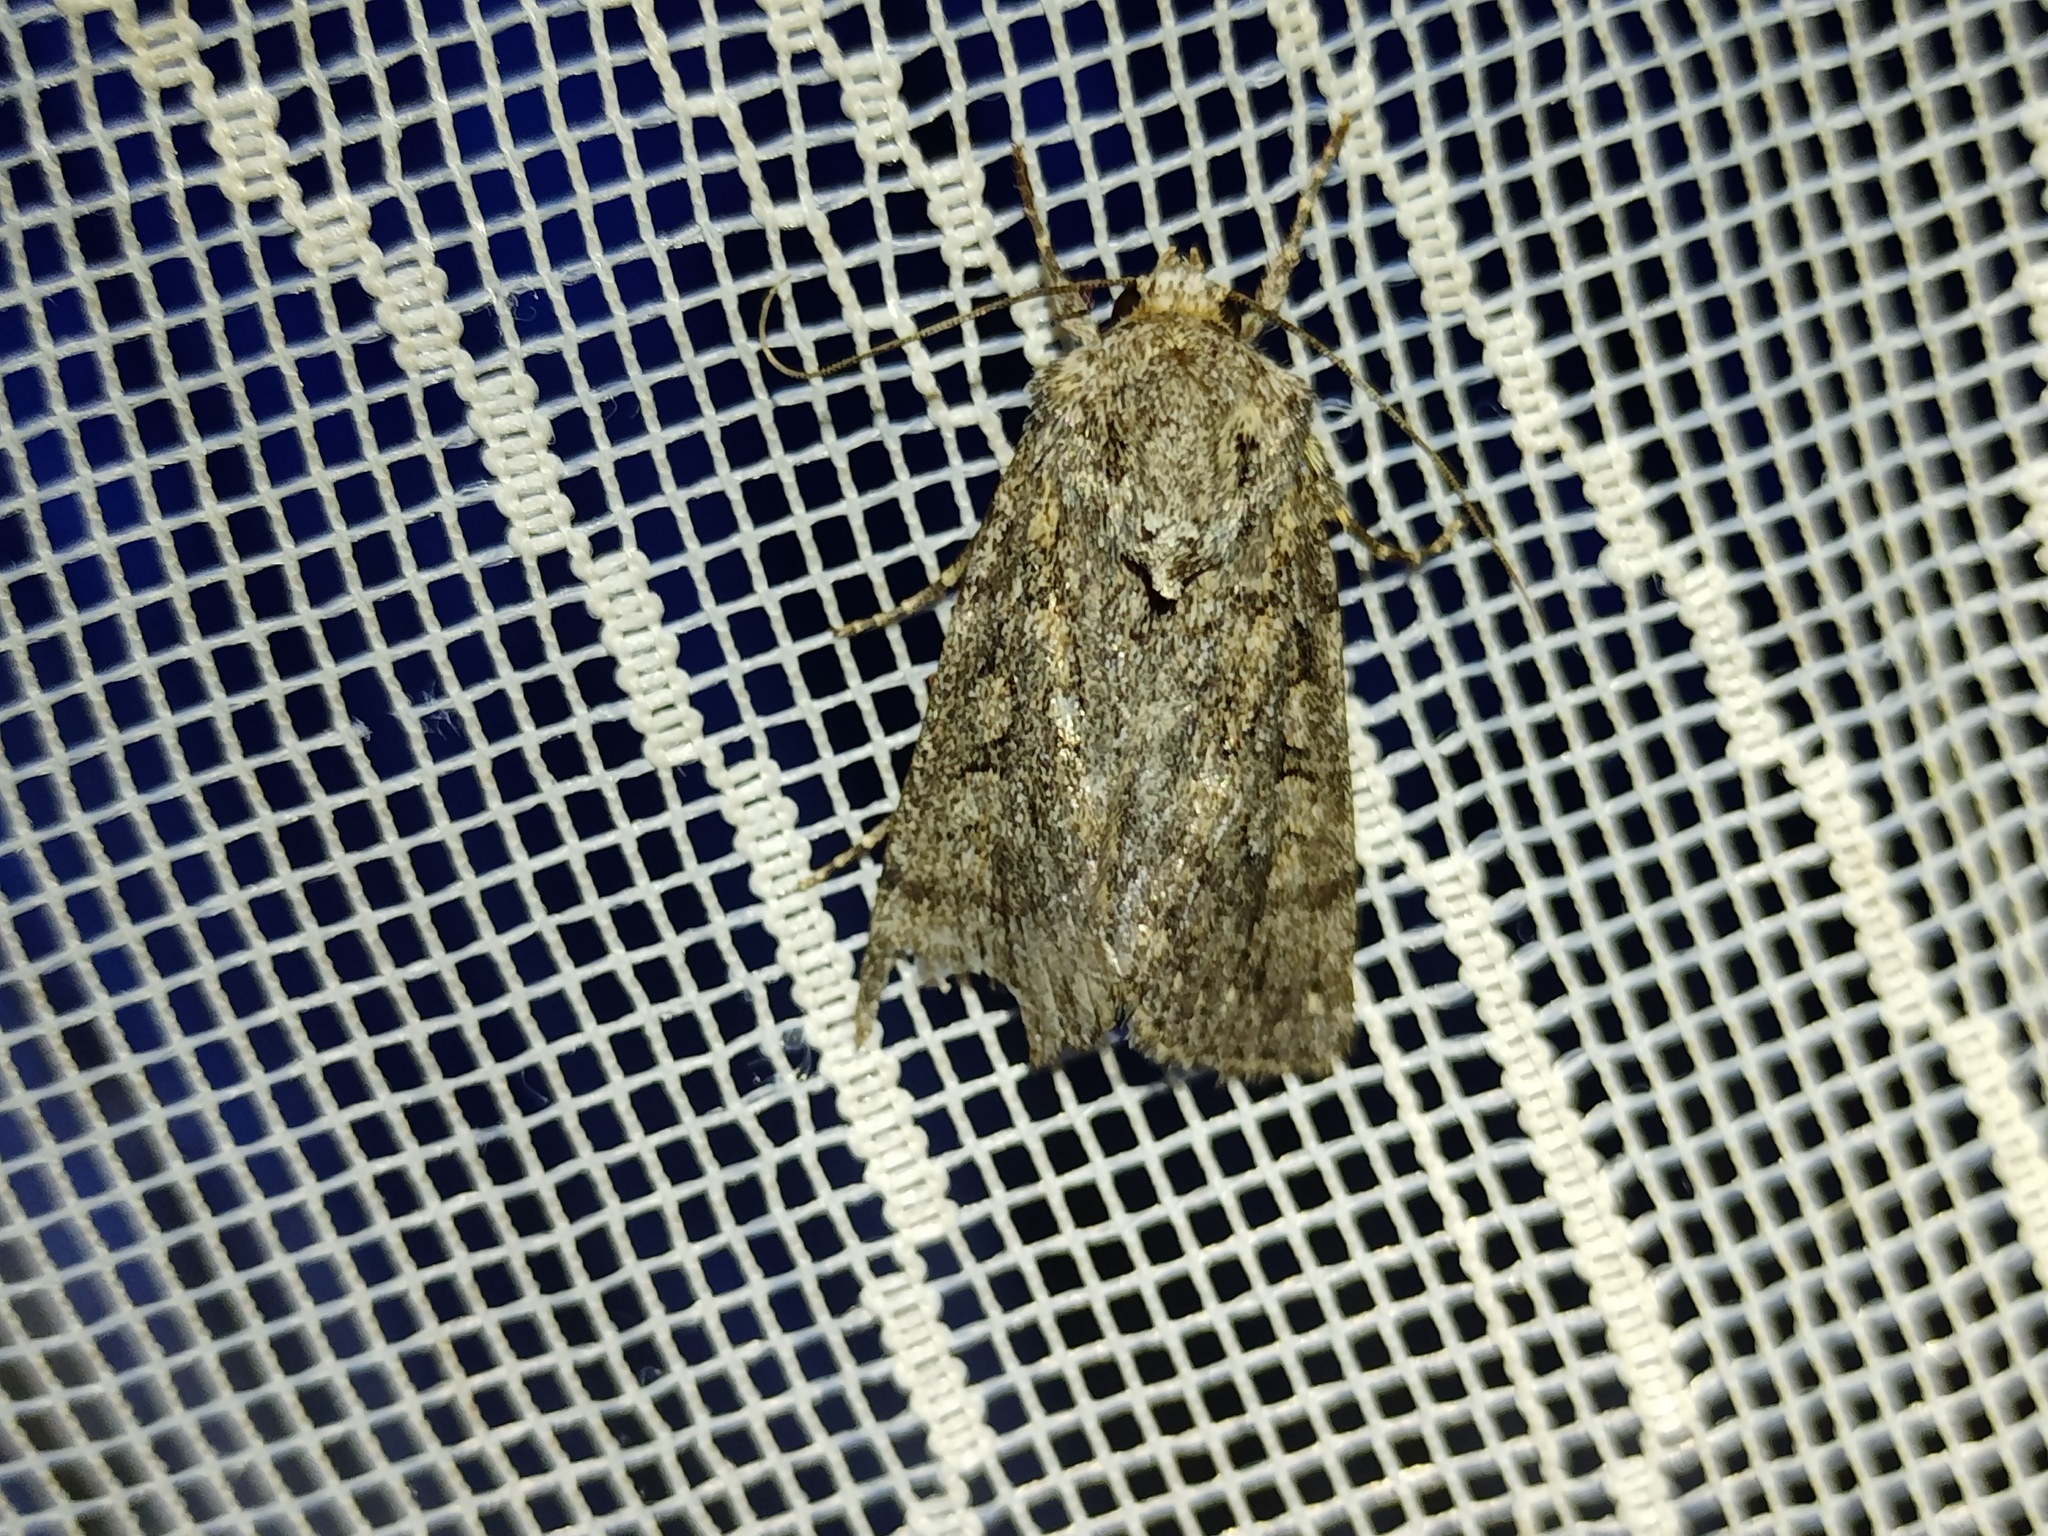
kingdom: Animalia
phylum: Arthropoda
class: Insecta
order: Lepidoptera
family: Noctuidae
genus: Yigoga
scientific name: Yigoga forcipula
